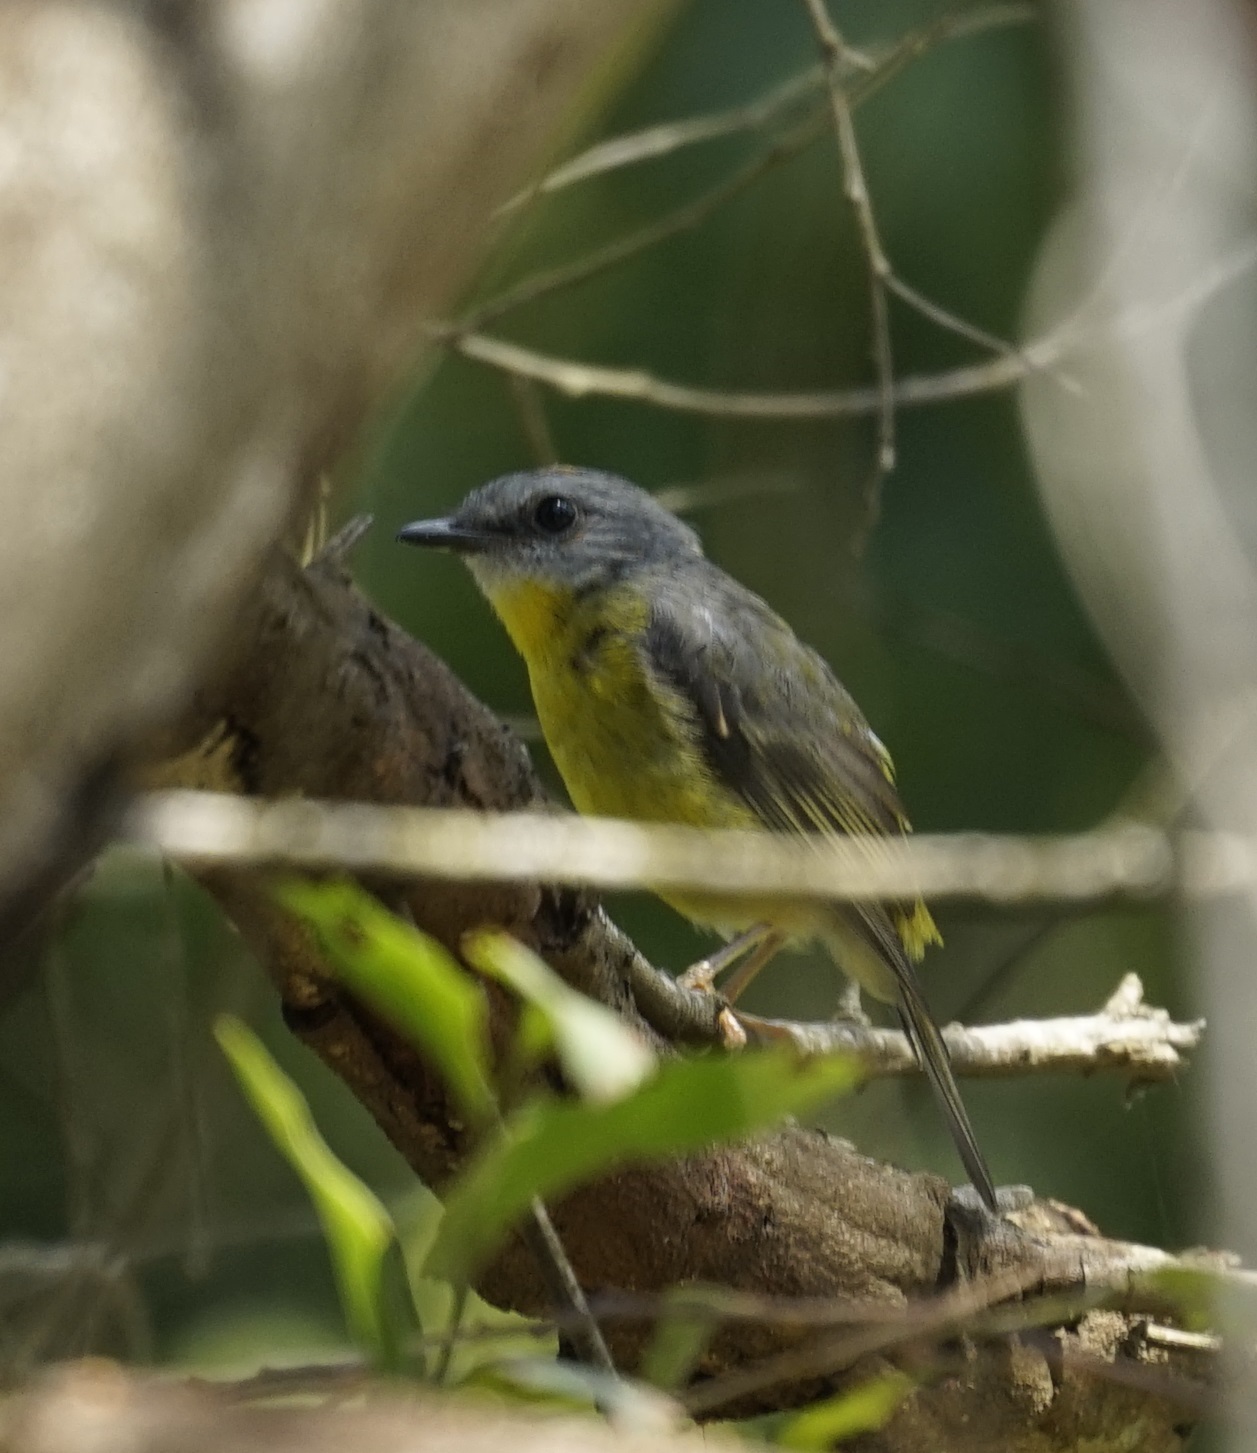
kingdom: Animalia
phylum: Chordata
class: Aves
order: Passeriformes
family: Petroicidae
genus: Eopsaltria
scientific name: Eopsaltria australis
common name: Eastern yellow robin
